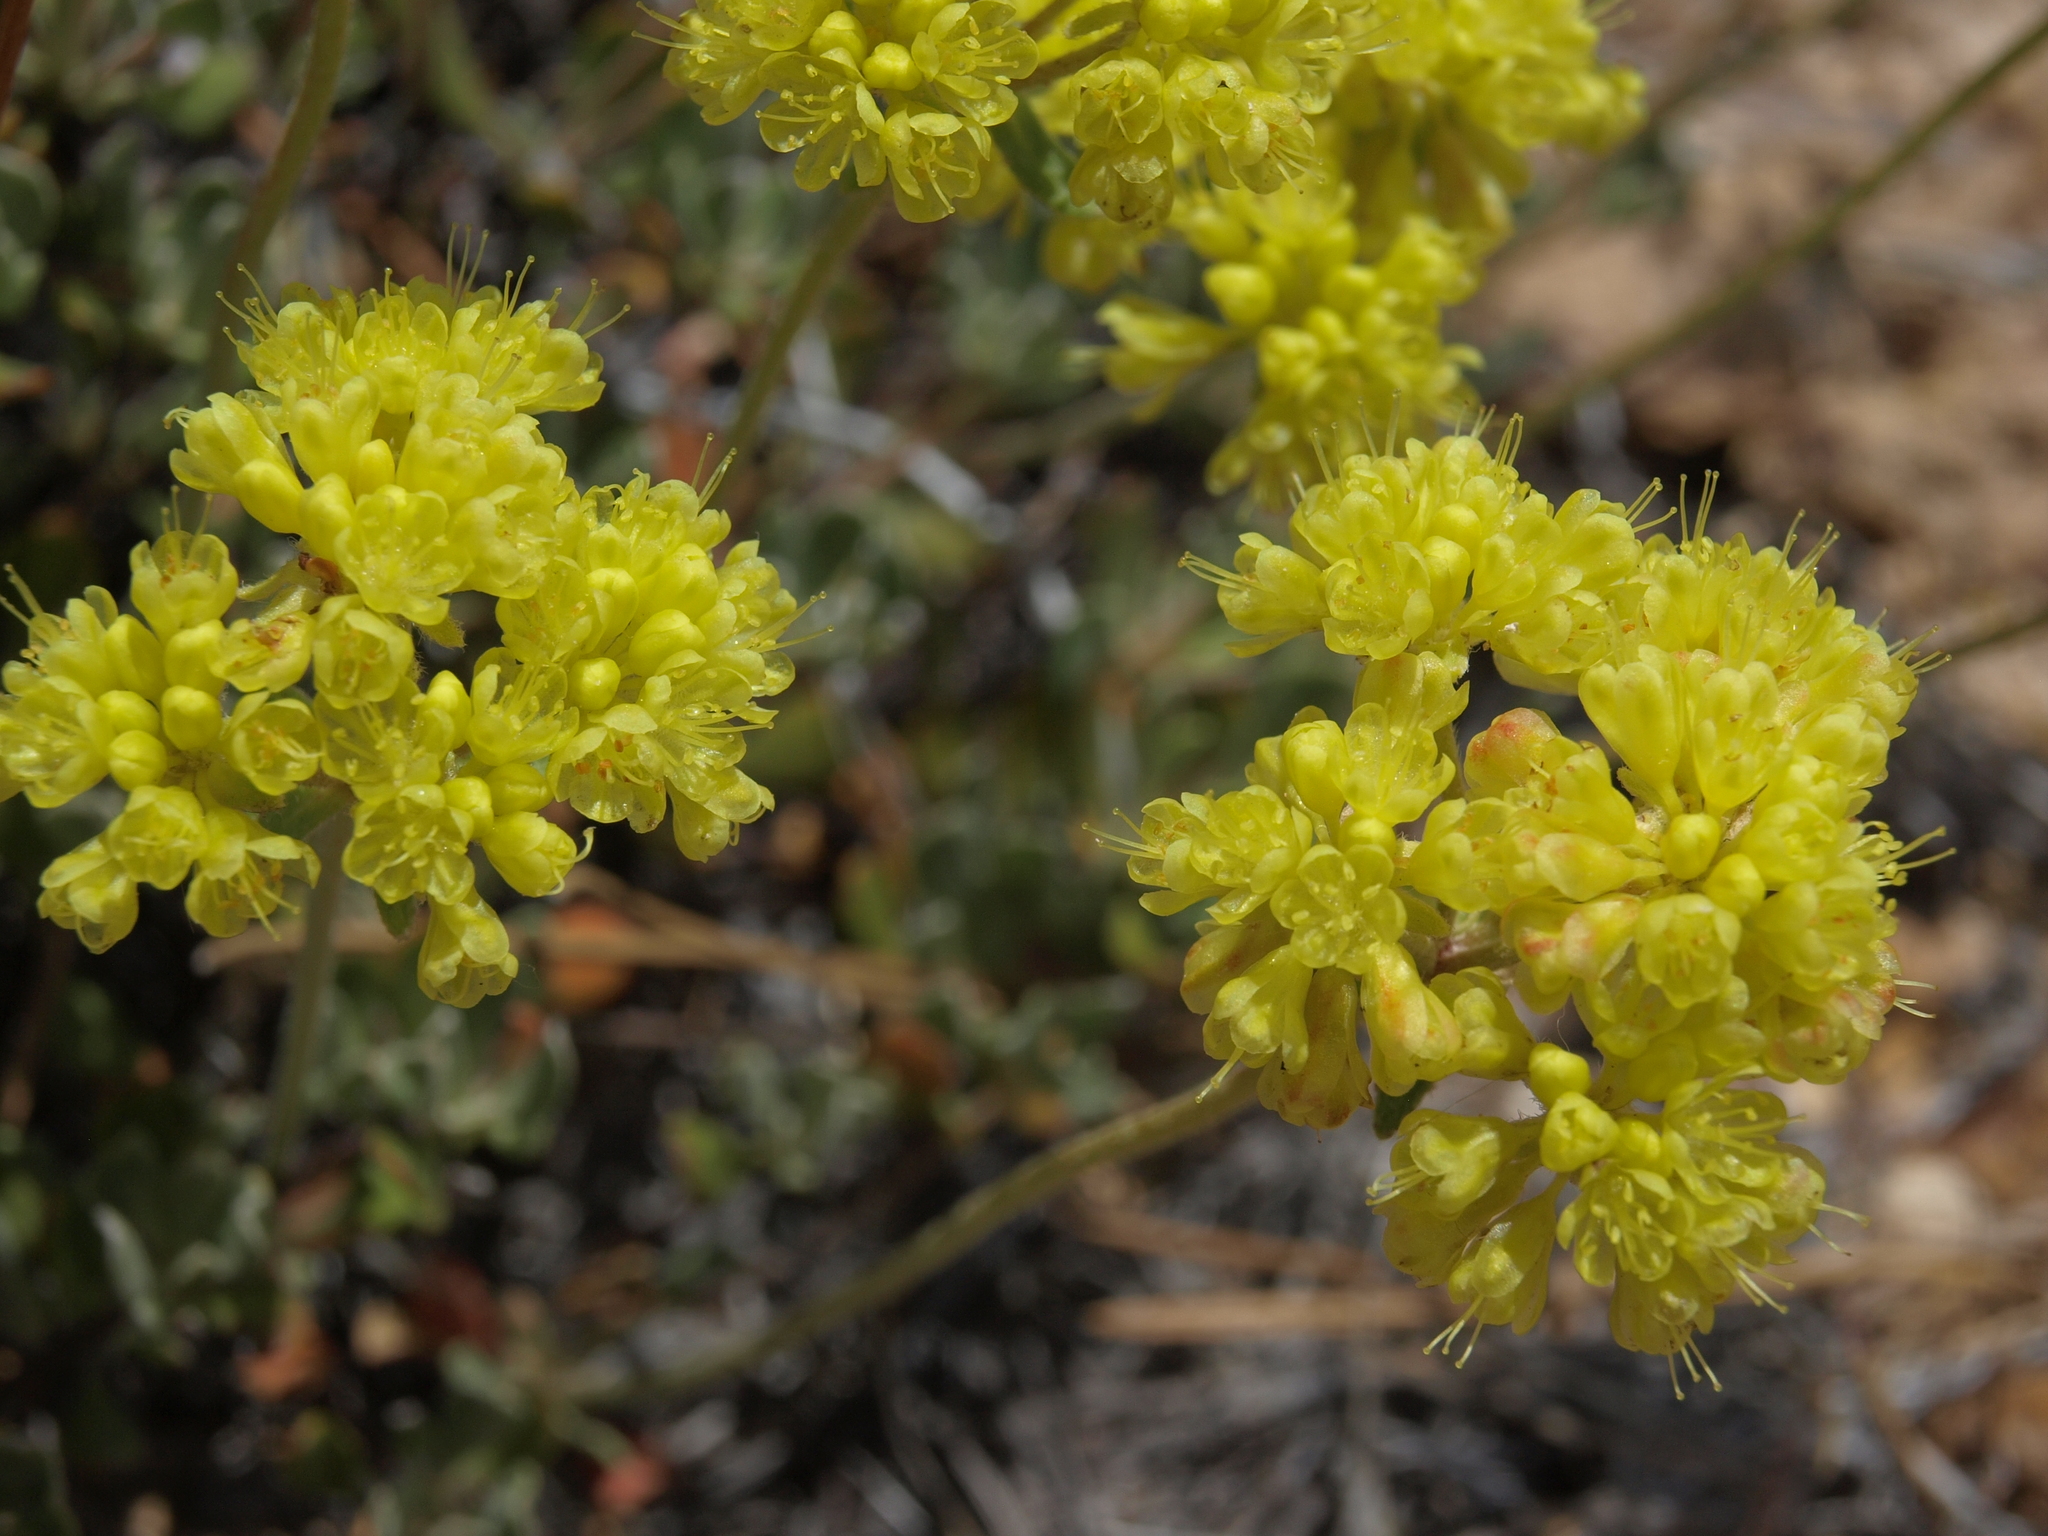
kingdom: Plantae
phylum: Tracheophyta
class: Magnoliopsida
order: Caryophyllales
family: Polygonaceae
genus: Eriogonum
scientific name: Eriogonum umbellatum
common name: Sulfur-buckwheat
